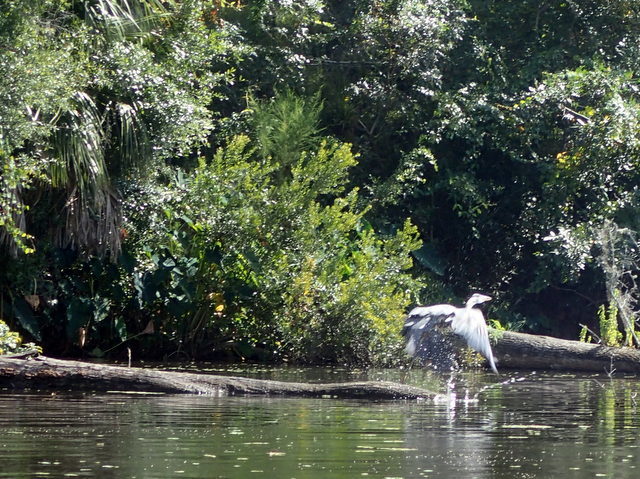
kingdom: Animalia
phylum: Chordata
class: Aves
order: Pelecaniformes
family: Ardeidae
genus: Ardea
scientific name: Ardea herodias
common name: Great blue heron
